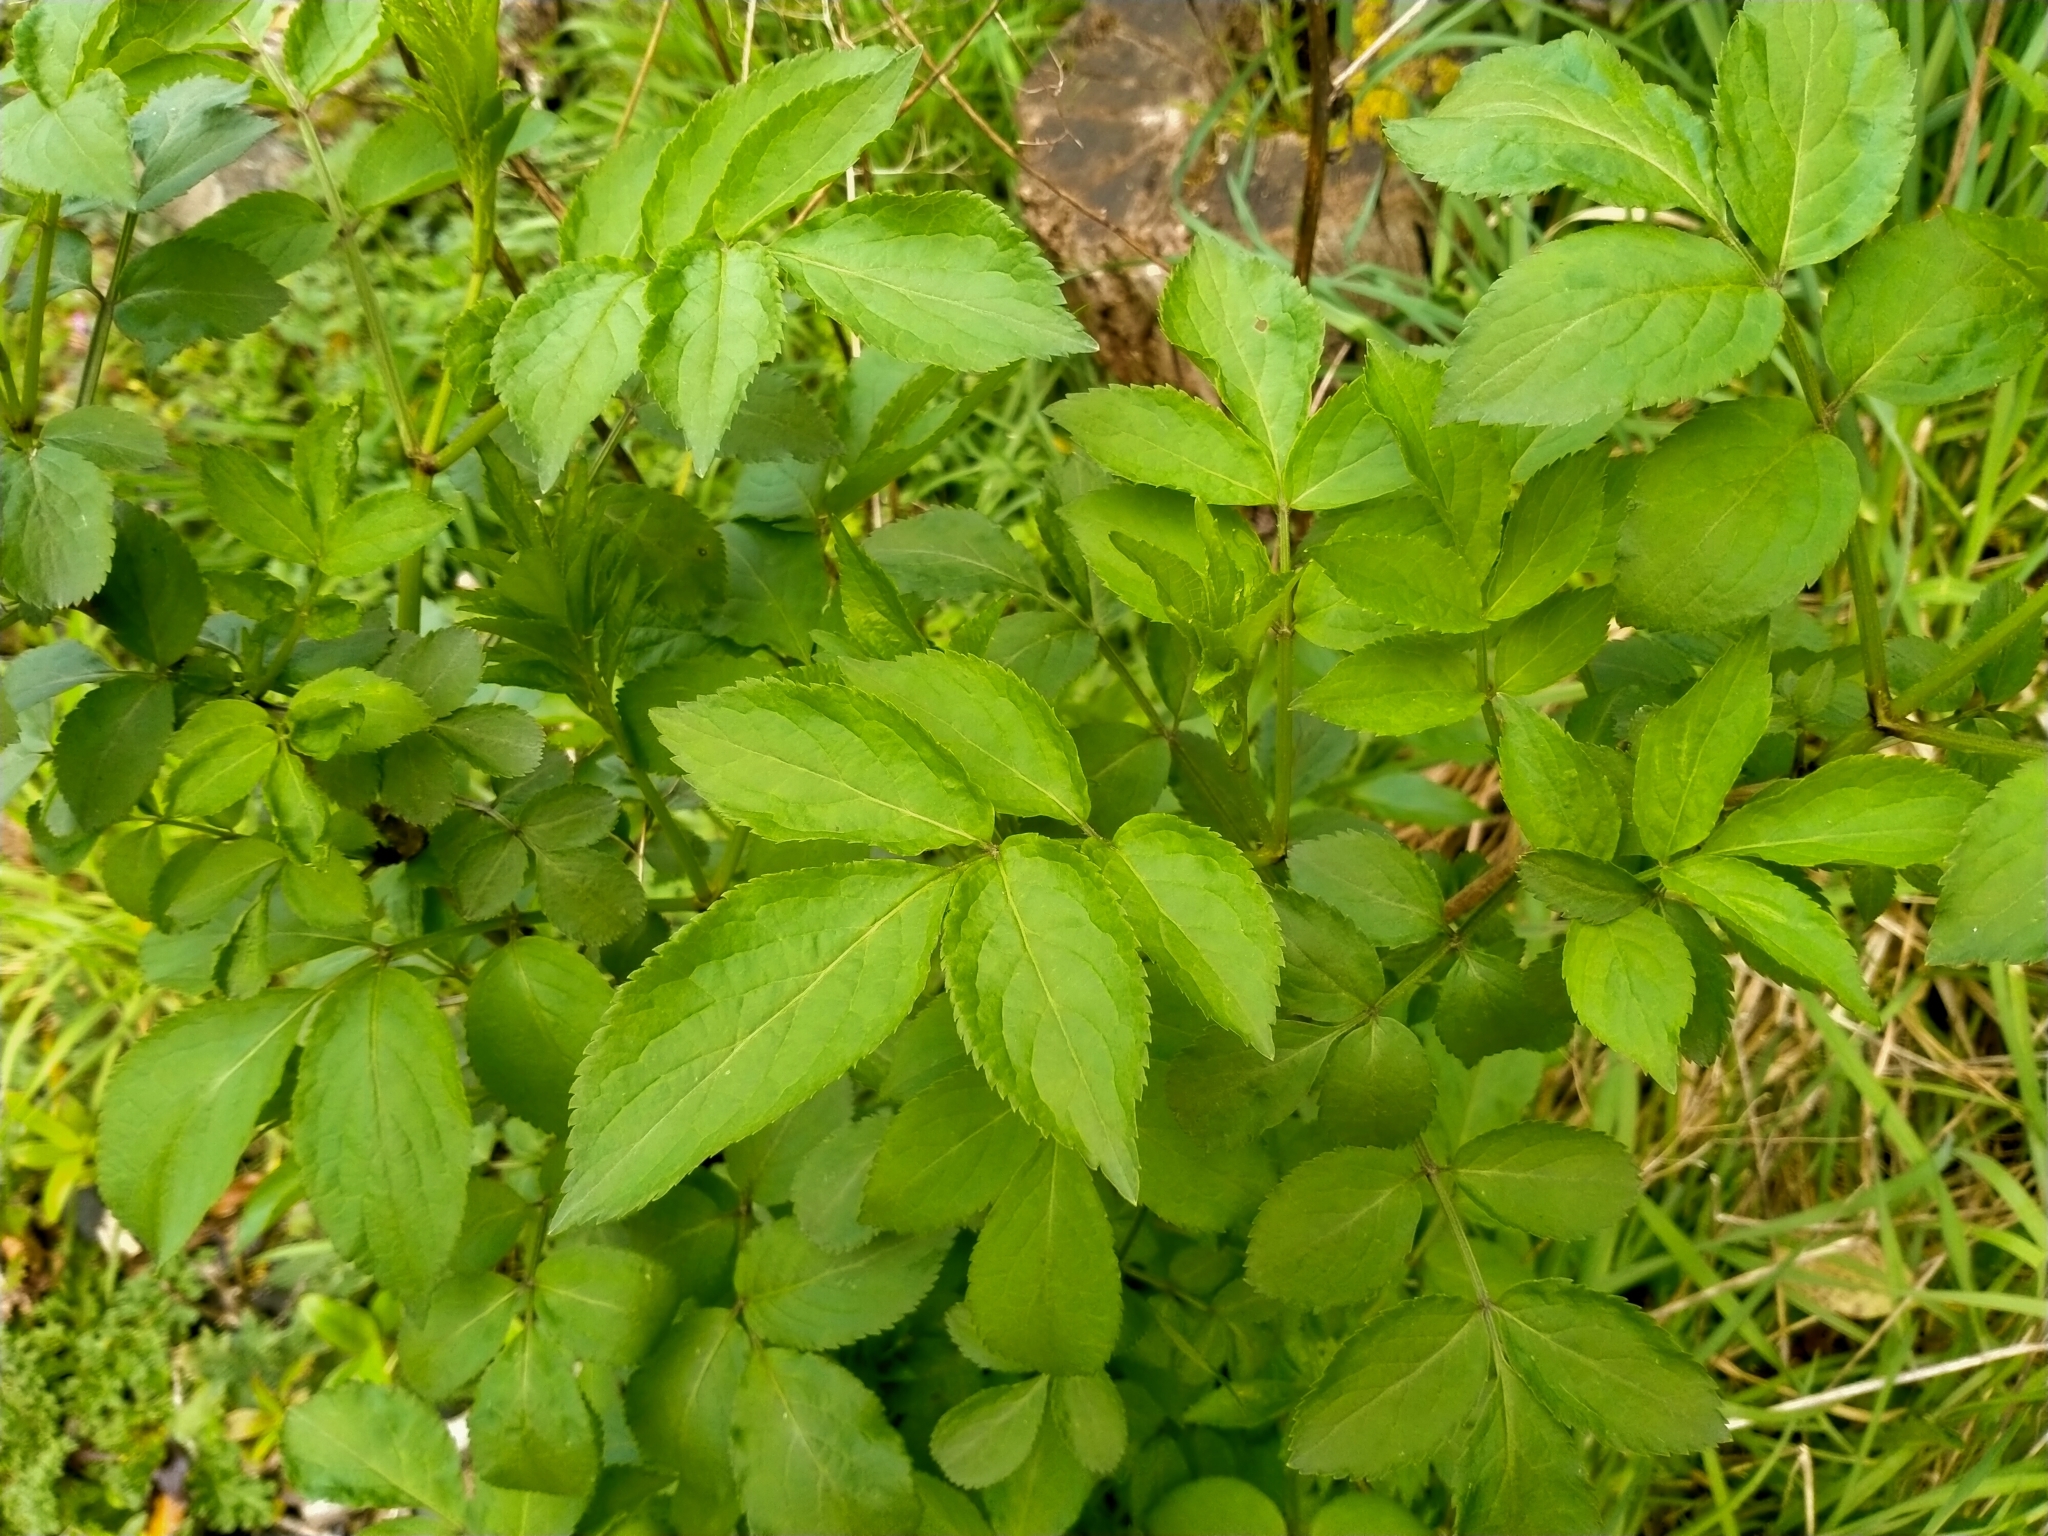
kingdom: Plantae
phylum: Tracheophyta
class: Magnoliopsida
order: Dipsacales
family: Viburnaceae
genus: Sambucus
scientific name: Sambucus nigra
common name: Elder
